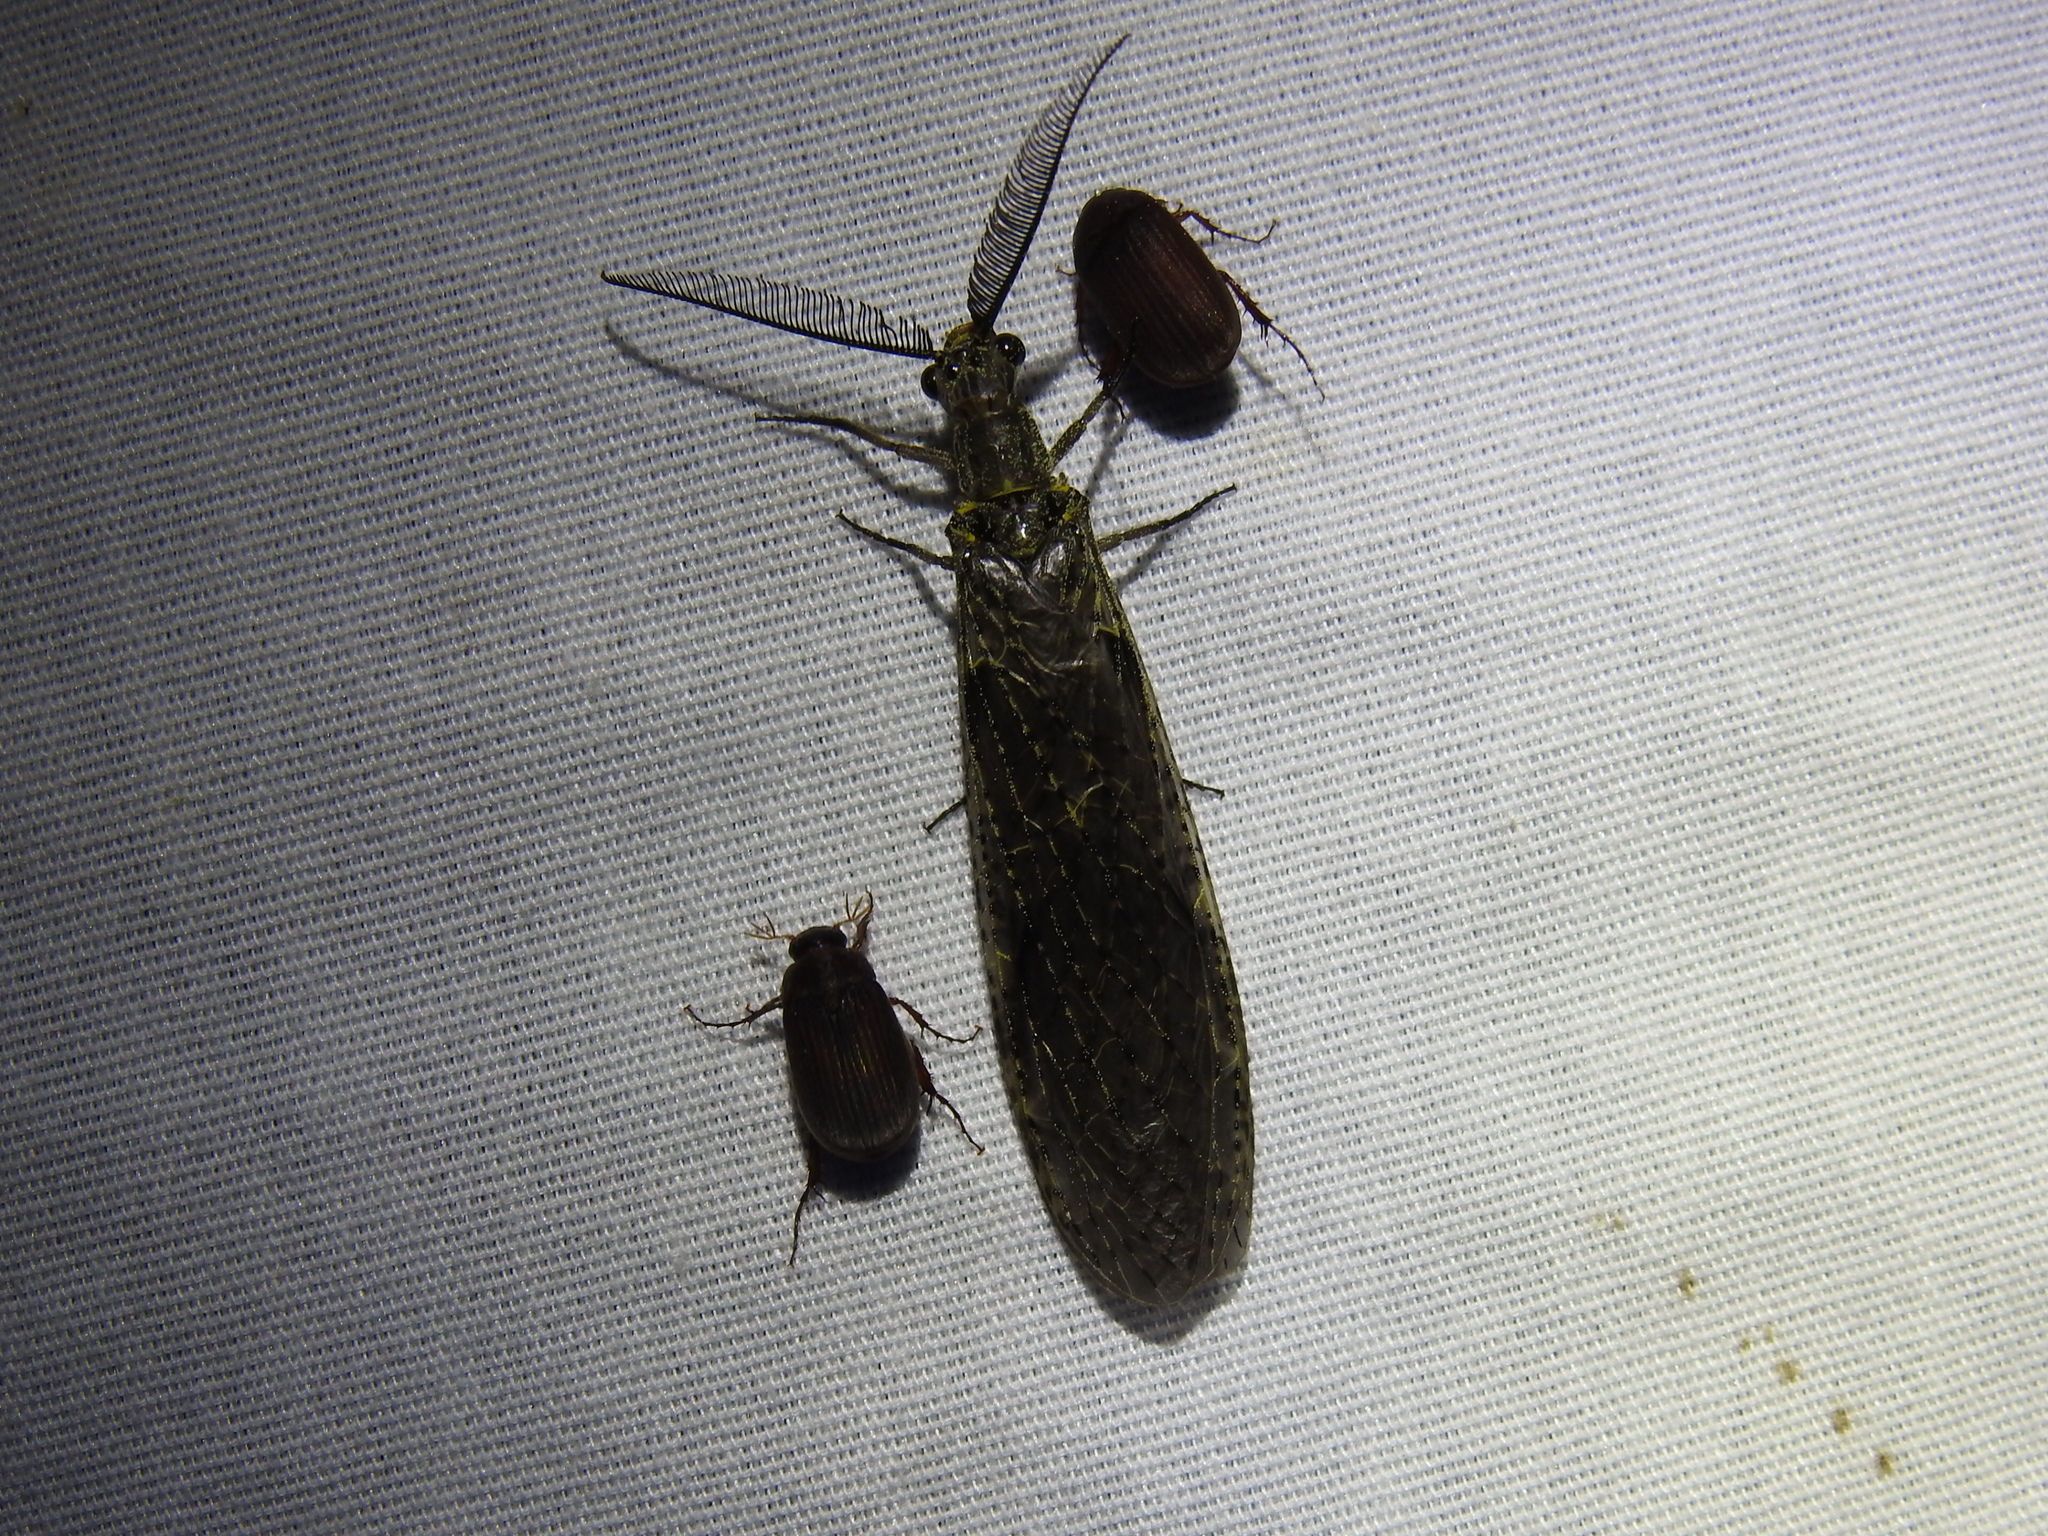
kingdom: Animalia
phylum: Arthropoda
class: Insecta
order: Megaloptera
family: Corydalidae
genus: Chauliodes
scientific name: Chauliodes rastricornis
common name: Spring fishfly
